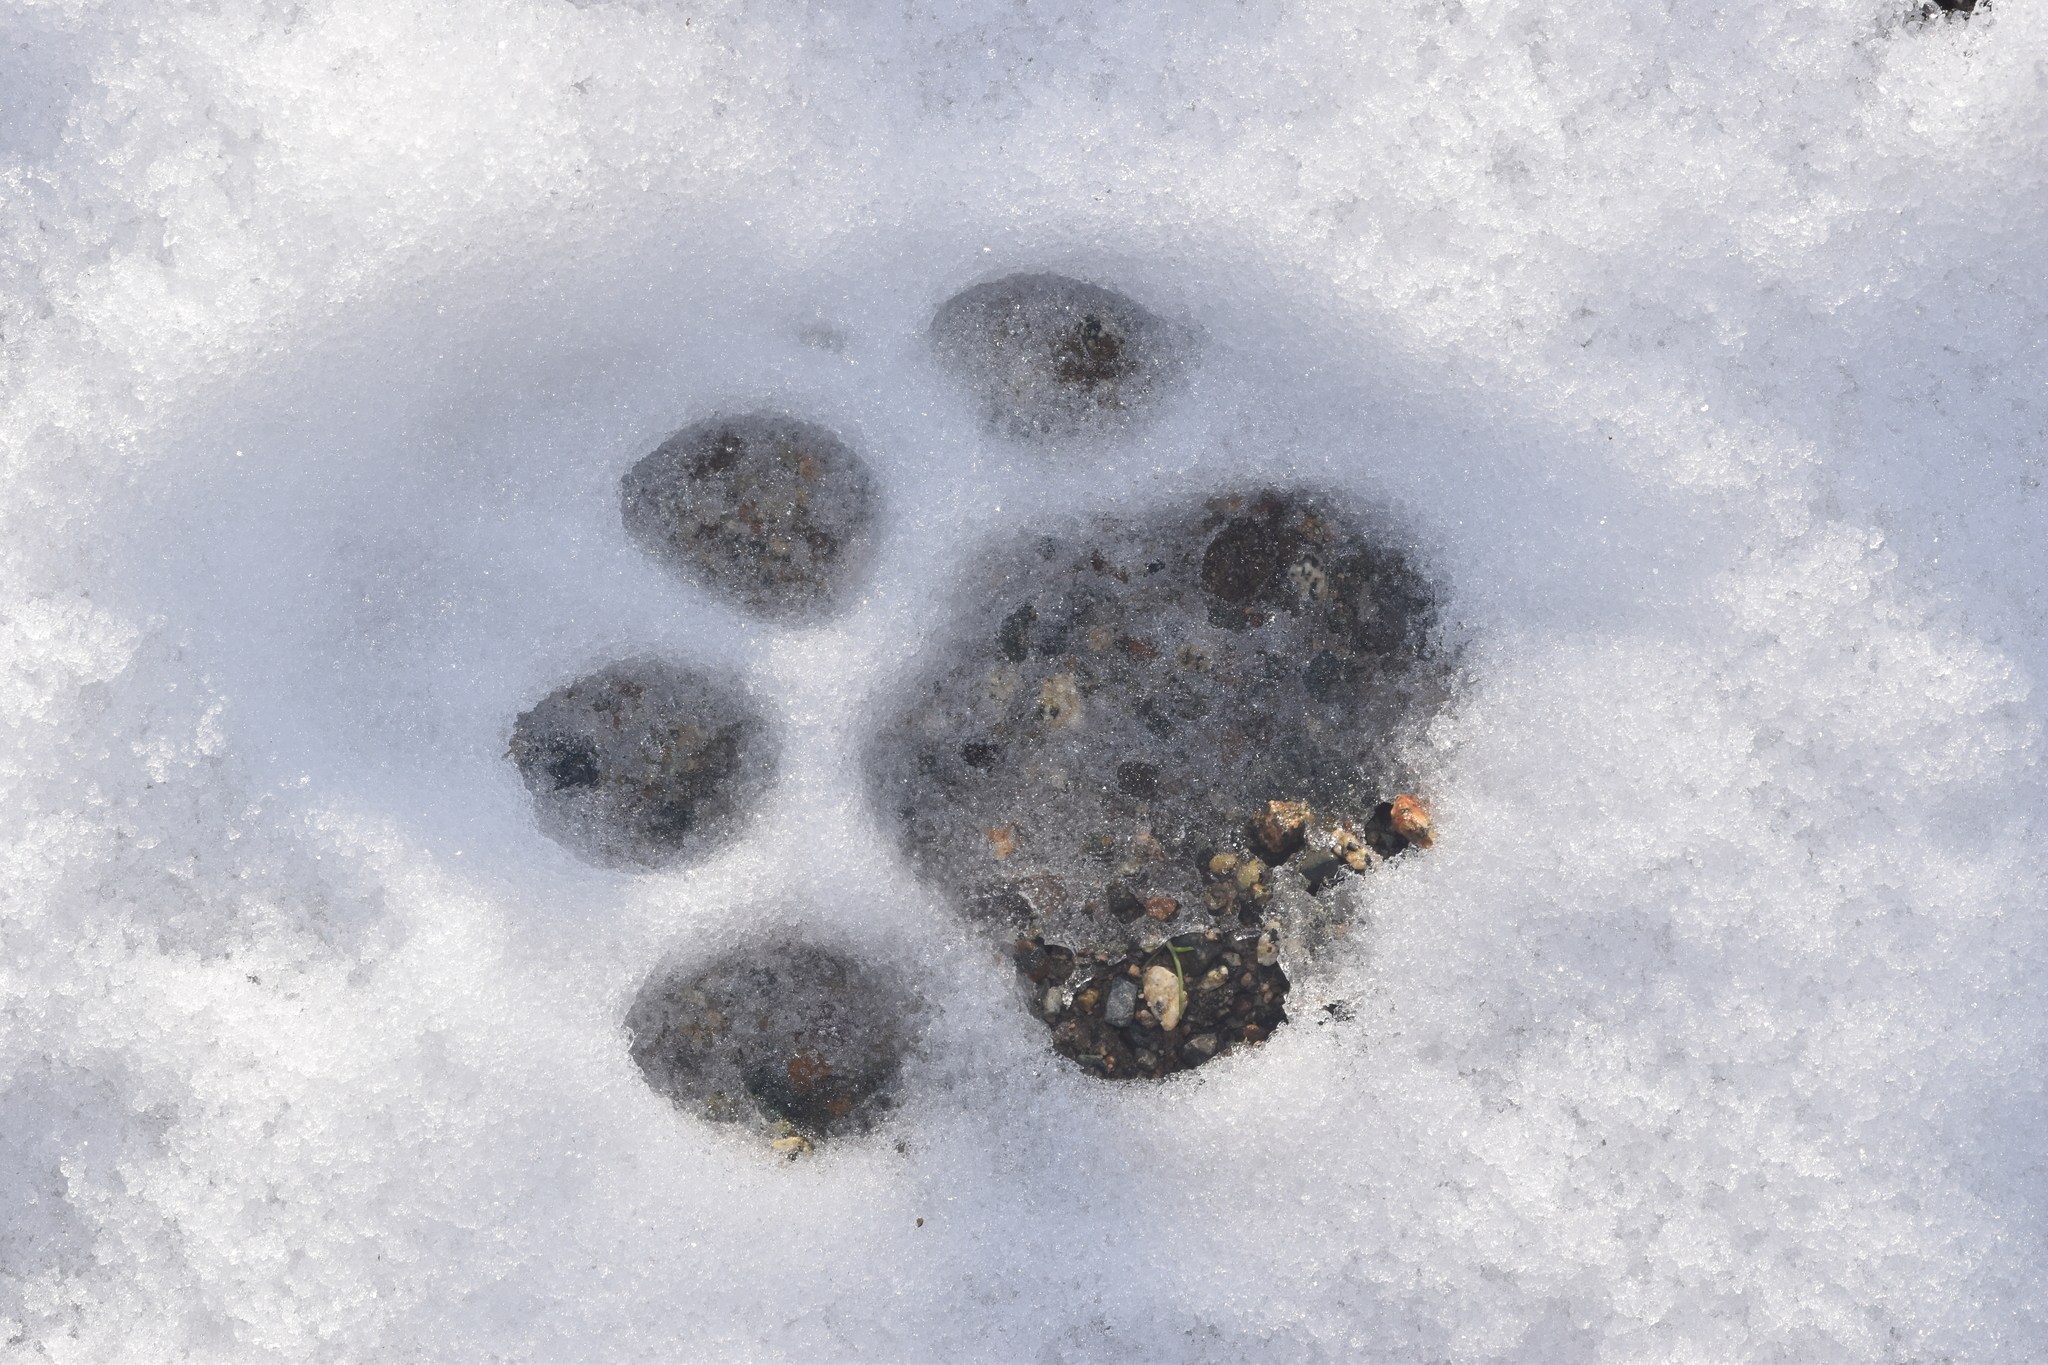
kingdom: Animalia
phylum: Chordata
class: Mammalia
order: Carnivora
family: Felidae
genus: Puma
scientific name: Puma concolor
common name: Puma
